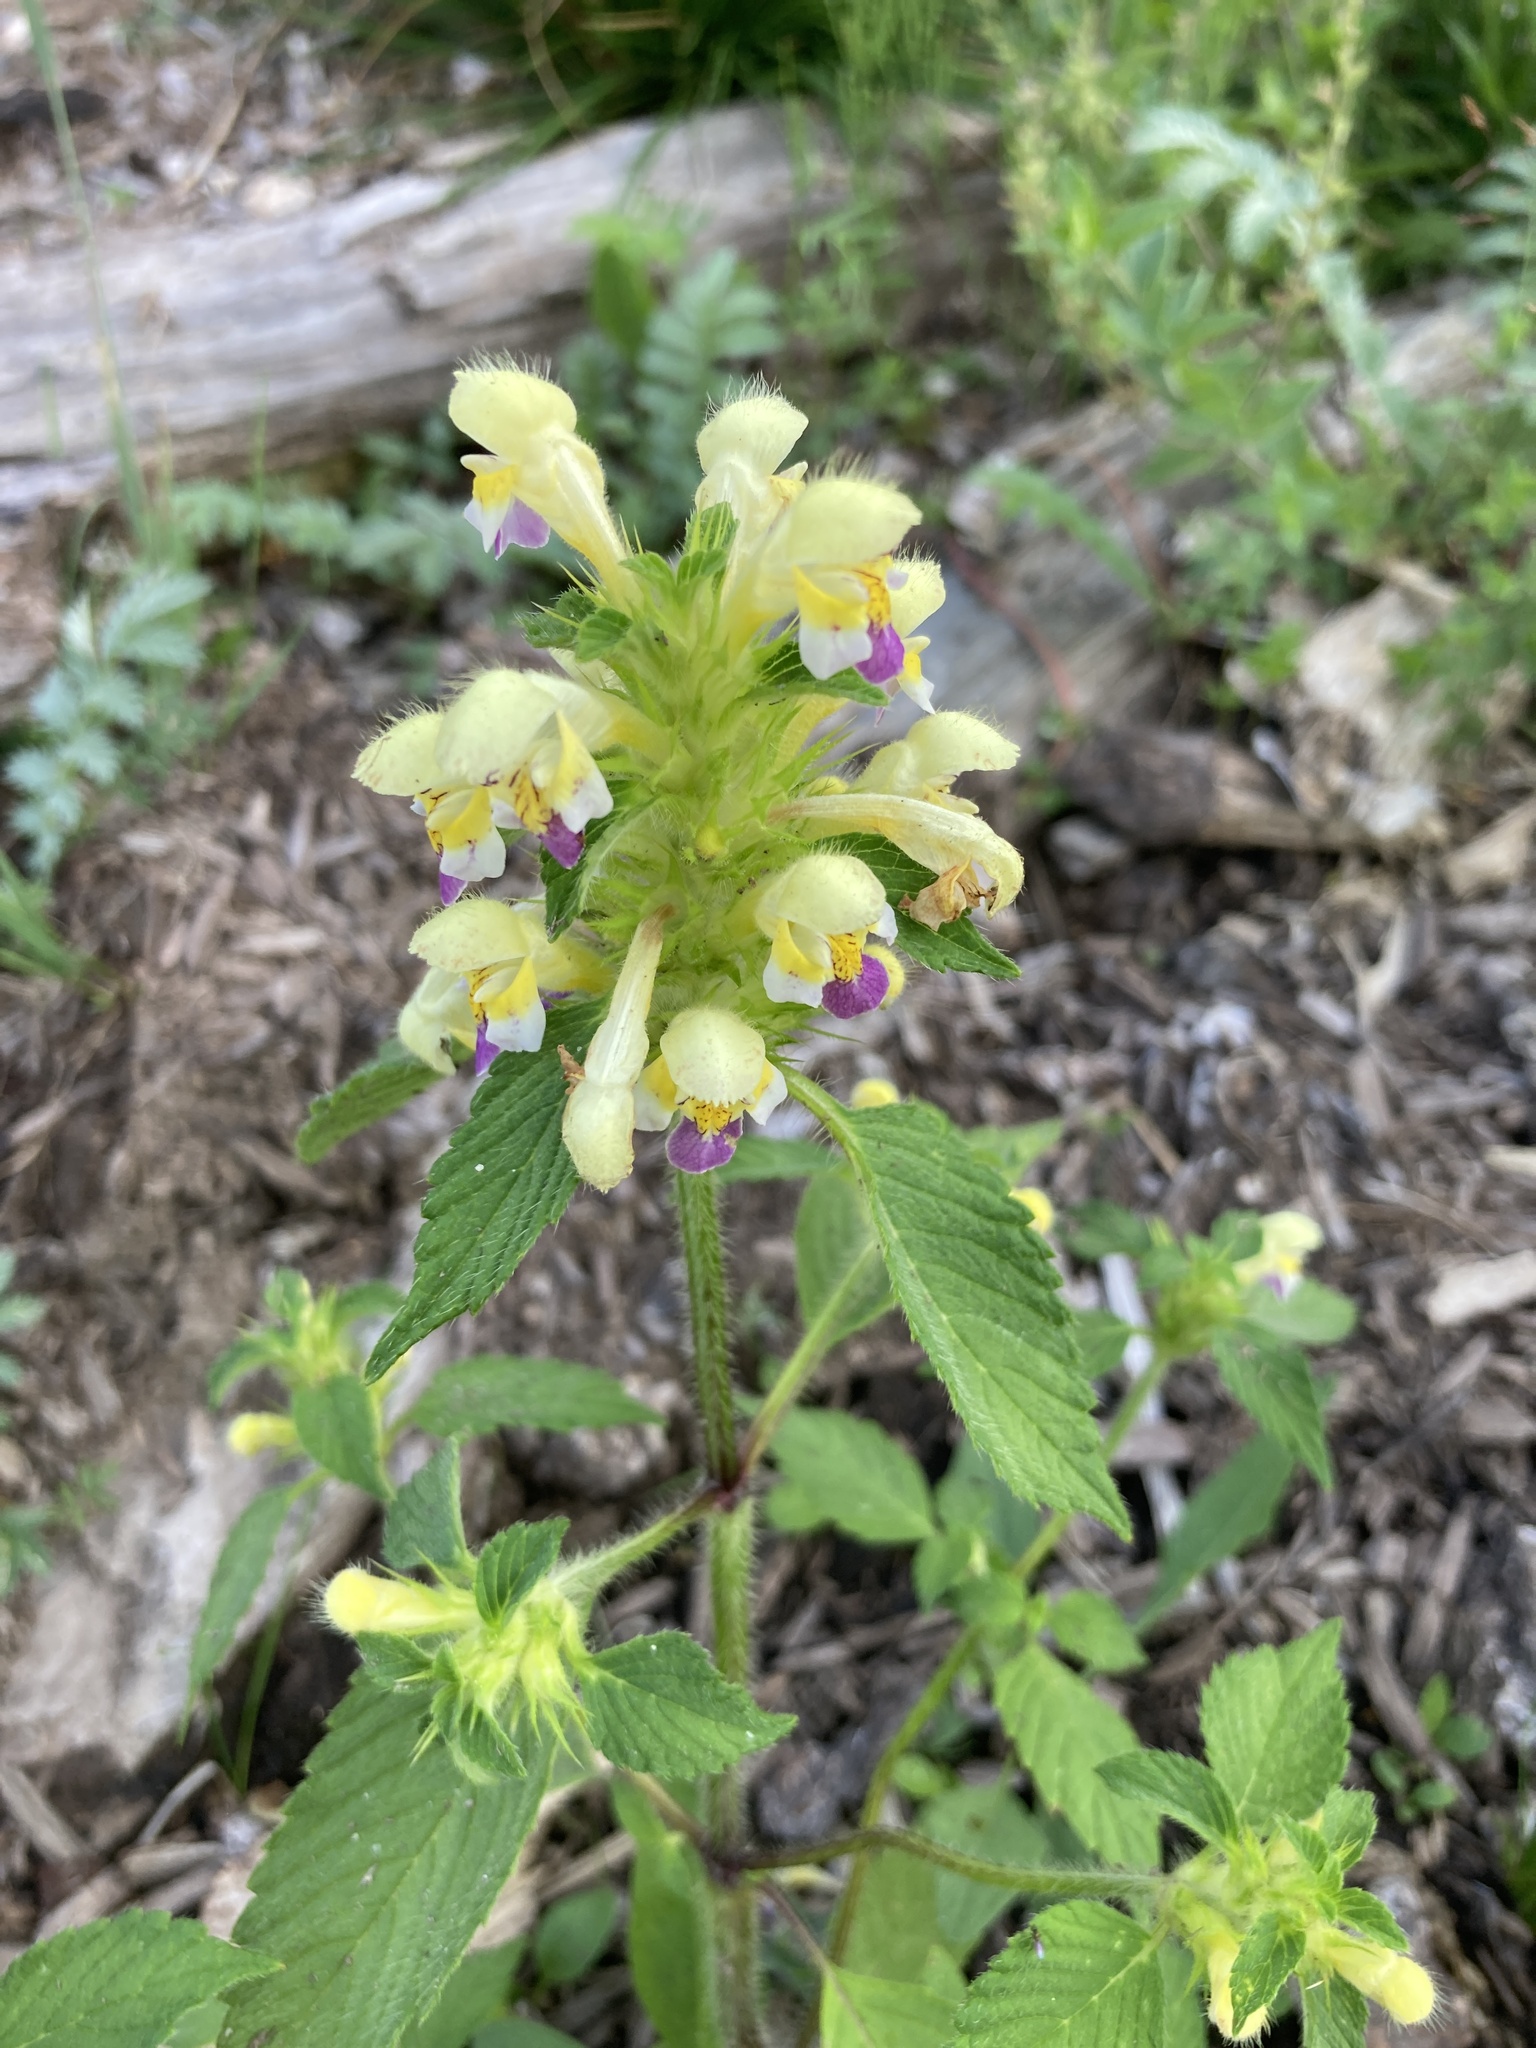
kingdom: Plantae
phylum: Tracheophyta
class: Magnoliopsida
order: Lamiales
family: Lamiaceae
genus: Galeopsis
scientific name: Galeopsis speciosa
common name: Large-flowered hemp-nettle
